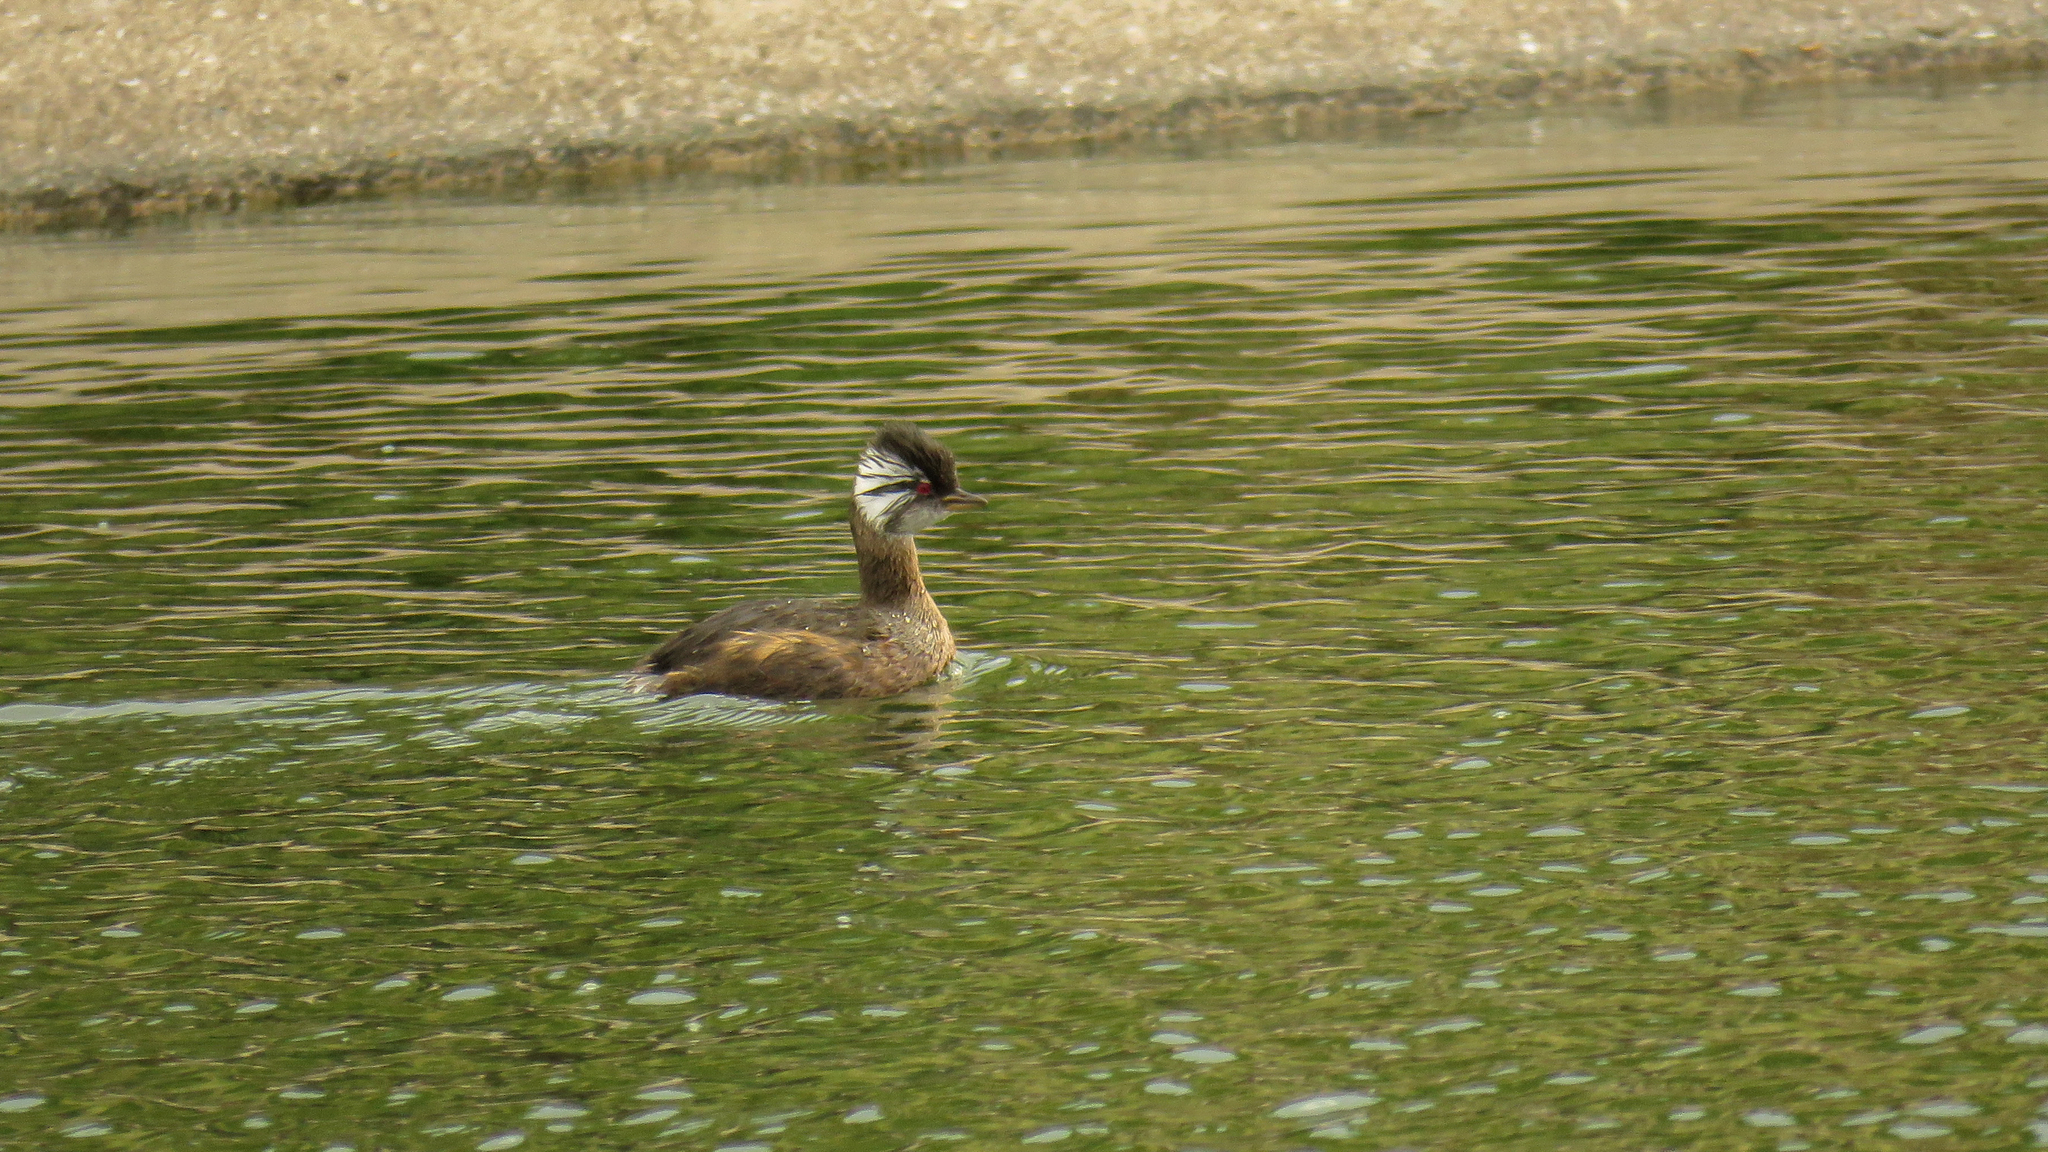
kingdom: Animalia
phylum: Chordata
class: Aves
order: Podicipediformes
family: Podicipedidae
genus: Rollandia
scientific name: Rollandia rolland
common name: White-tufted grebe
